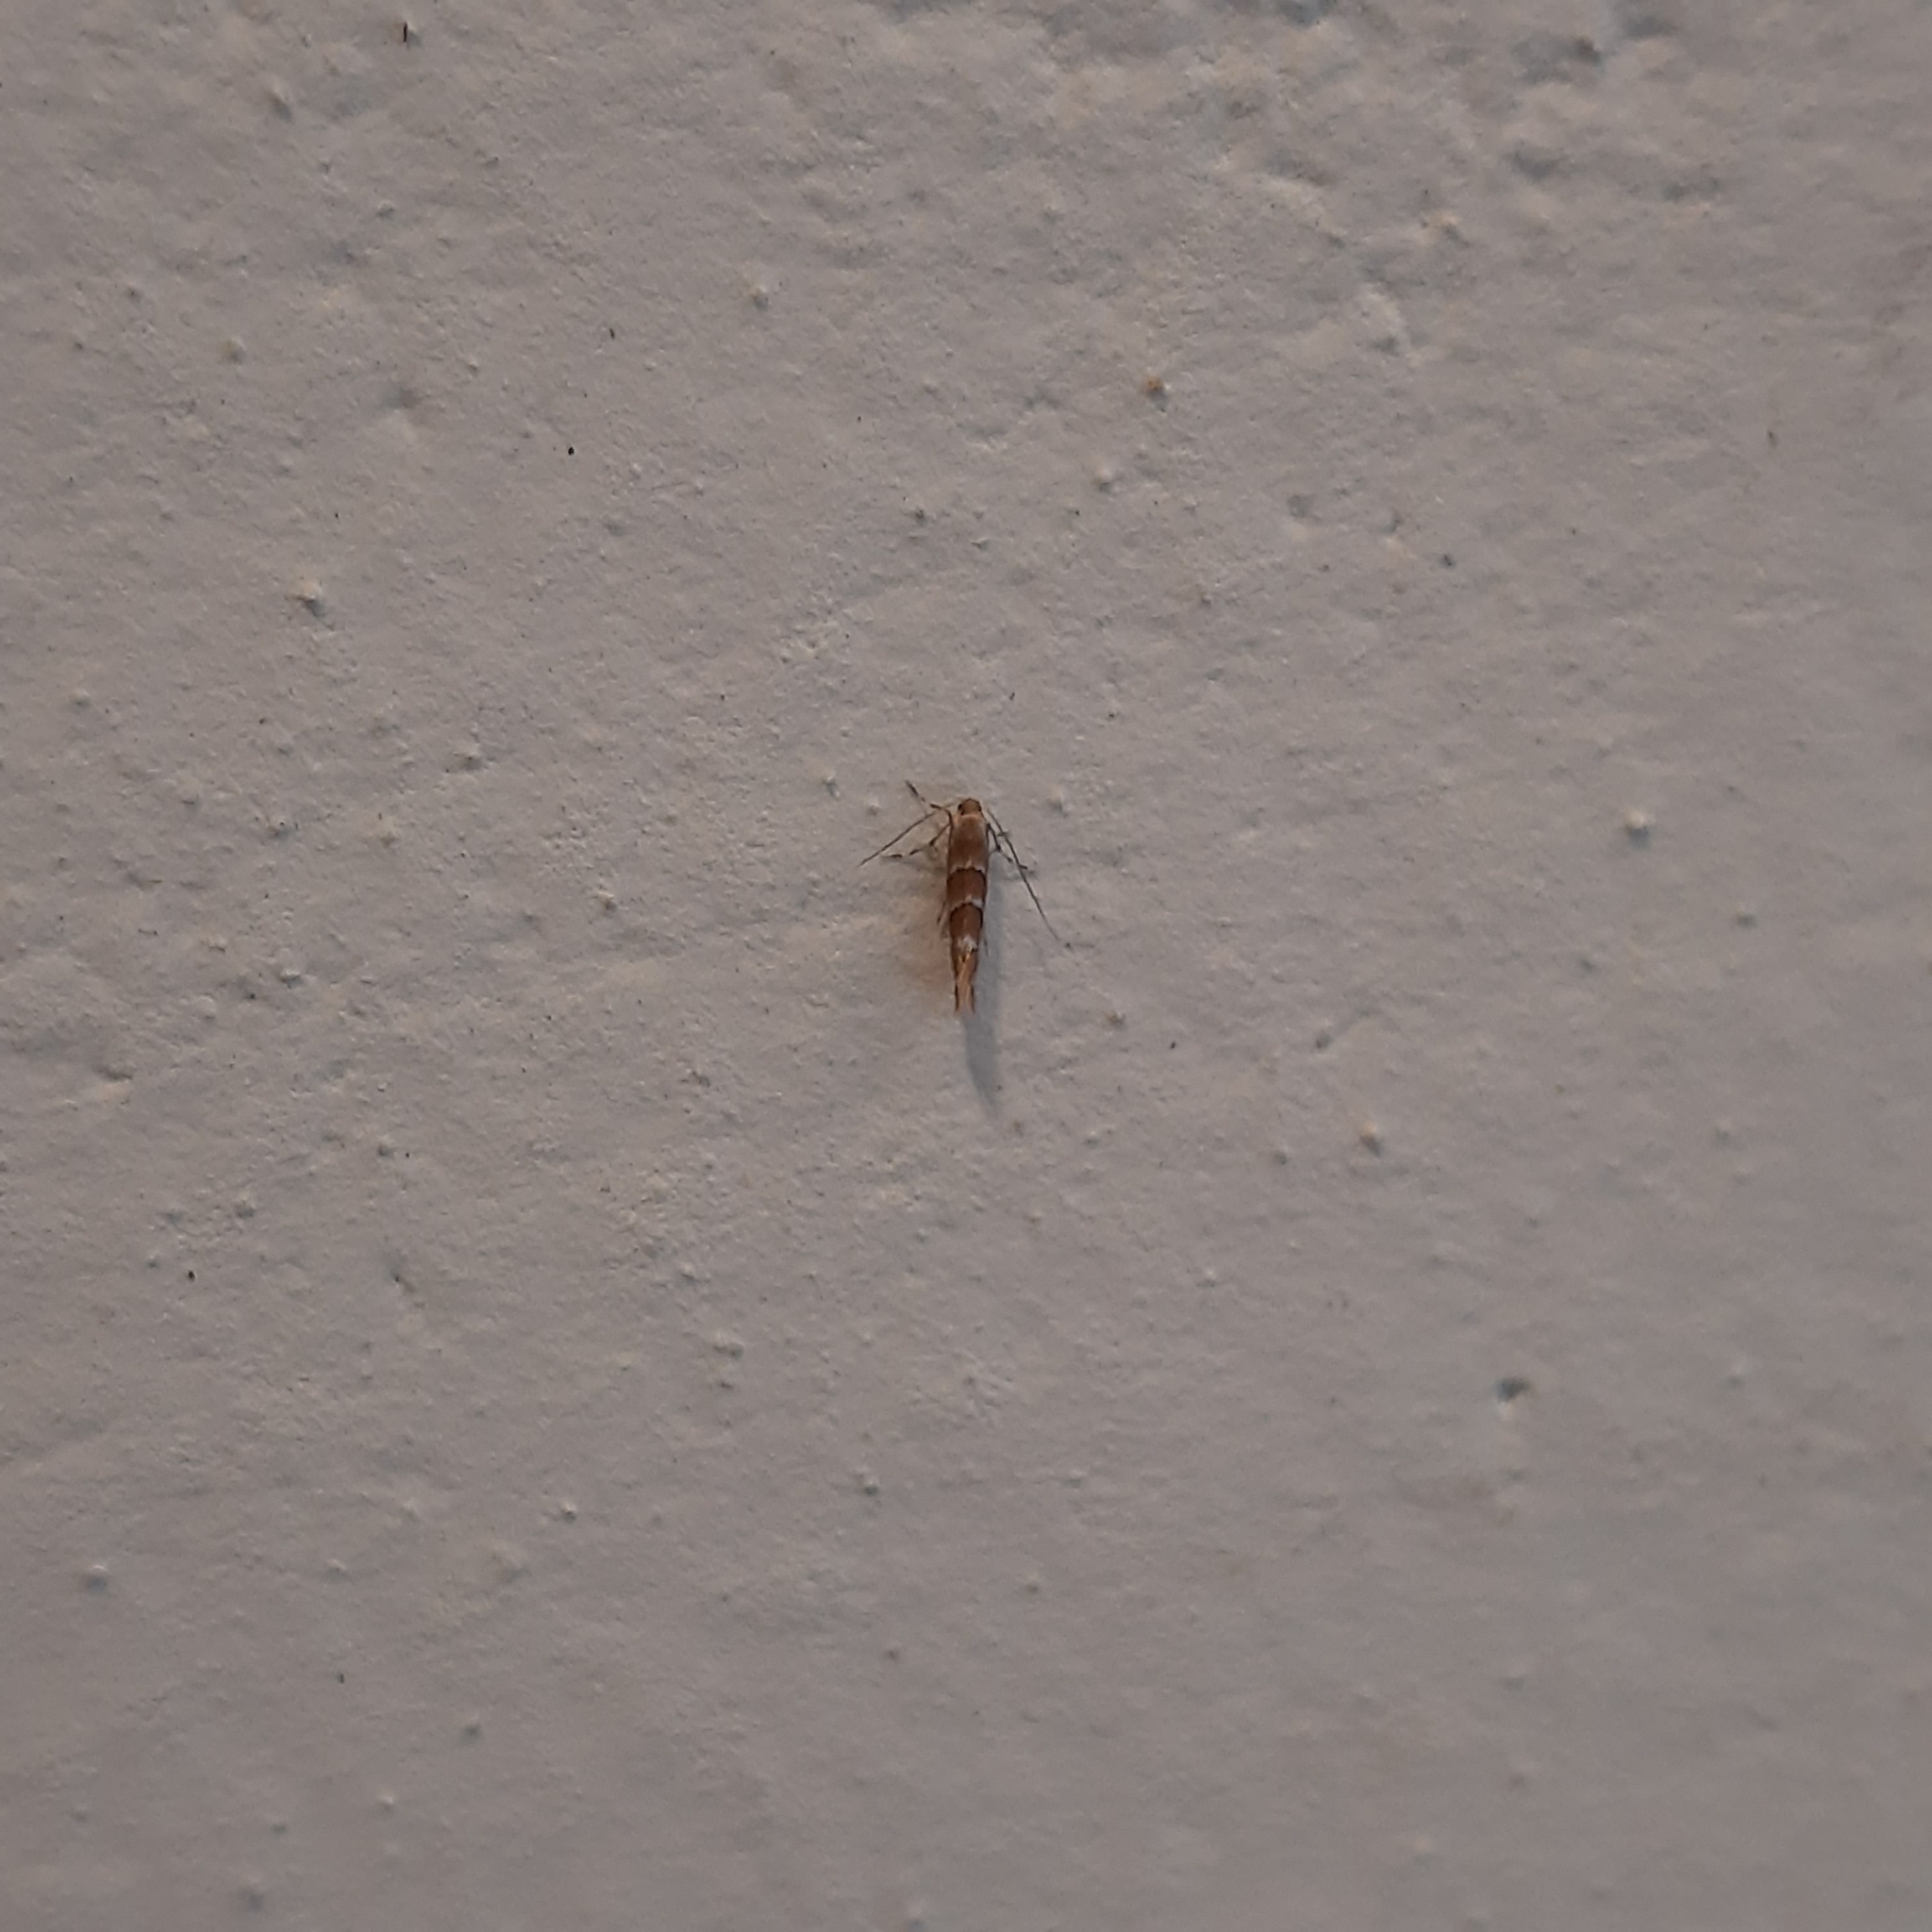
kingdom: Animalia
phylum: Arthropoda
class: Insecta
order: Lepidoptera
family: Gracillariidae
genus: Cameraria
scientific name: Cameraria ohridella
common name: Horse-chestnut leaf-miner
